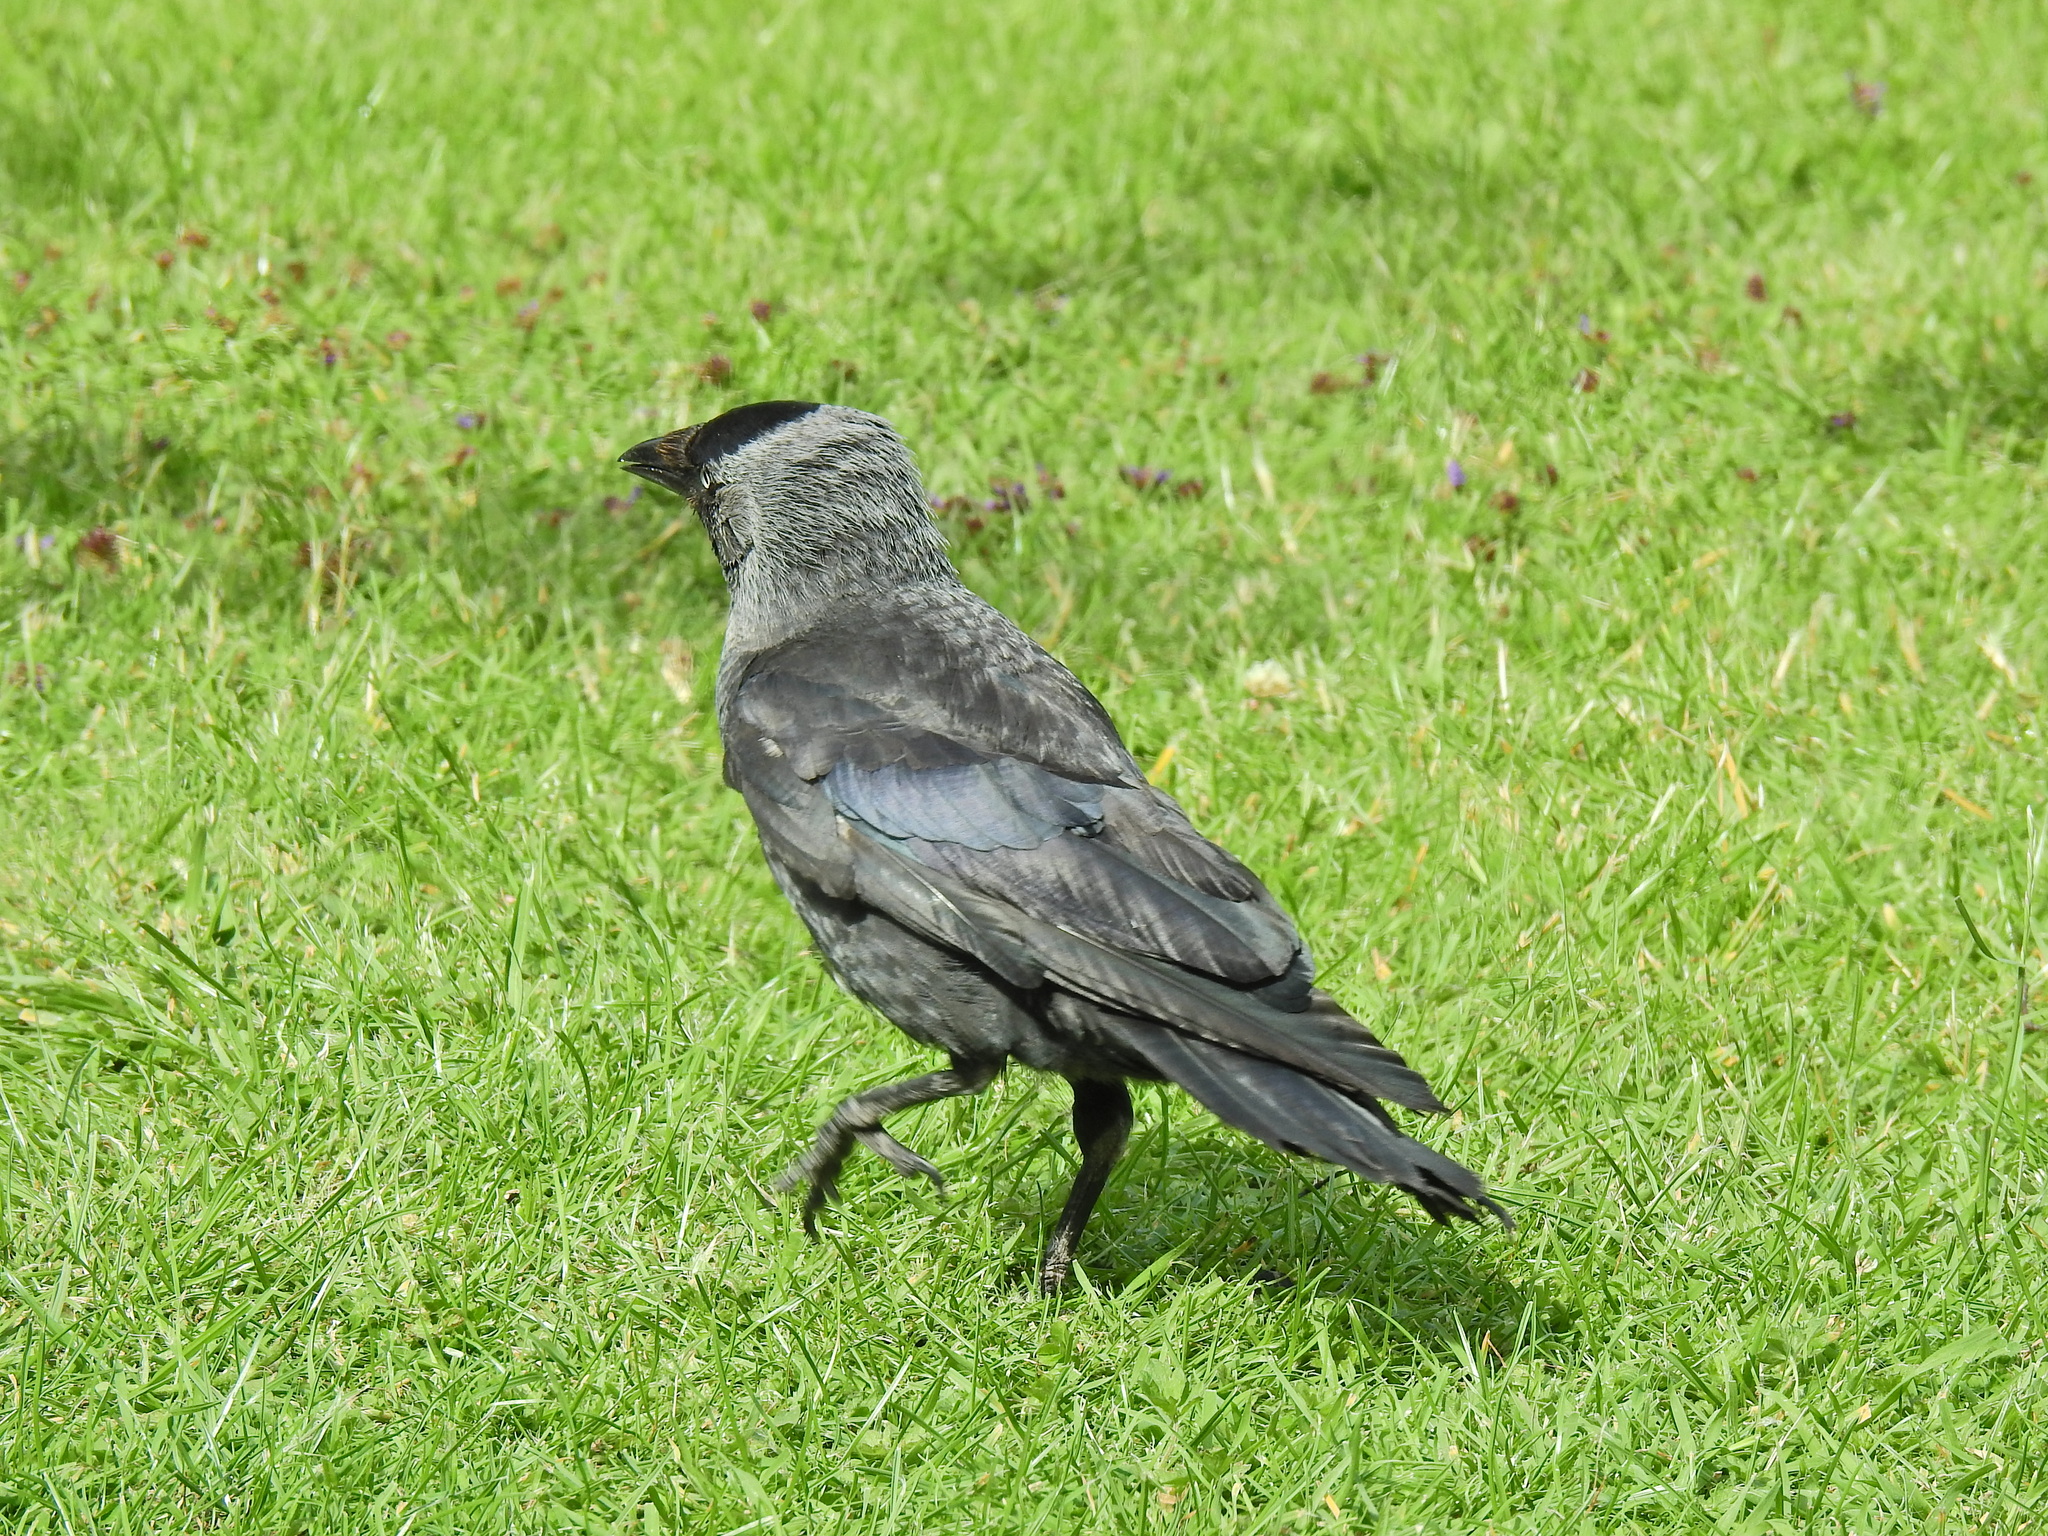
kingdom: Animalia
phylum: Chordata
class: Aves
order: Passeriformes
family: Corvidae
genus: Coloeus
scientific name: Coloeus monedula
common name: Western jackdaw
